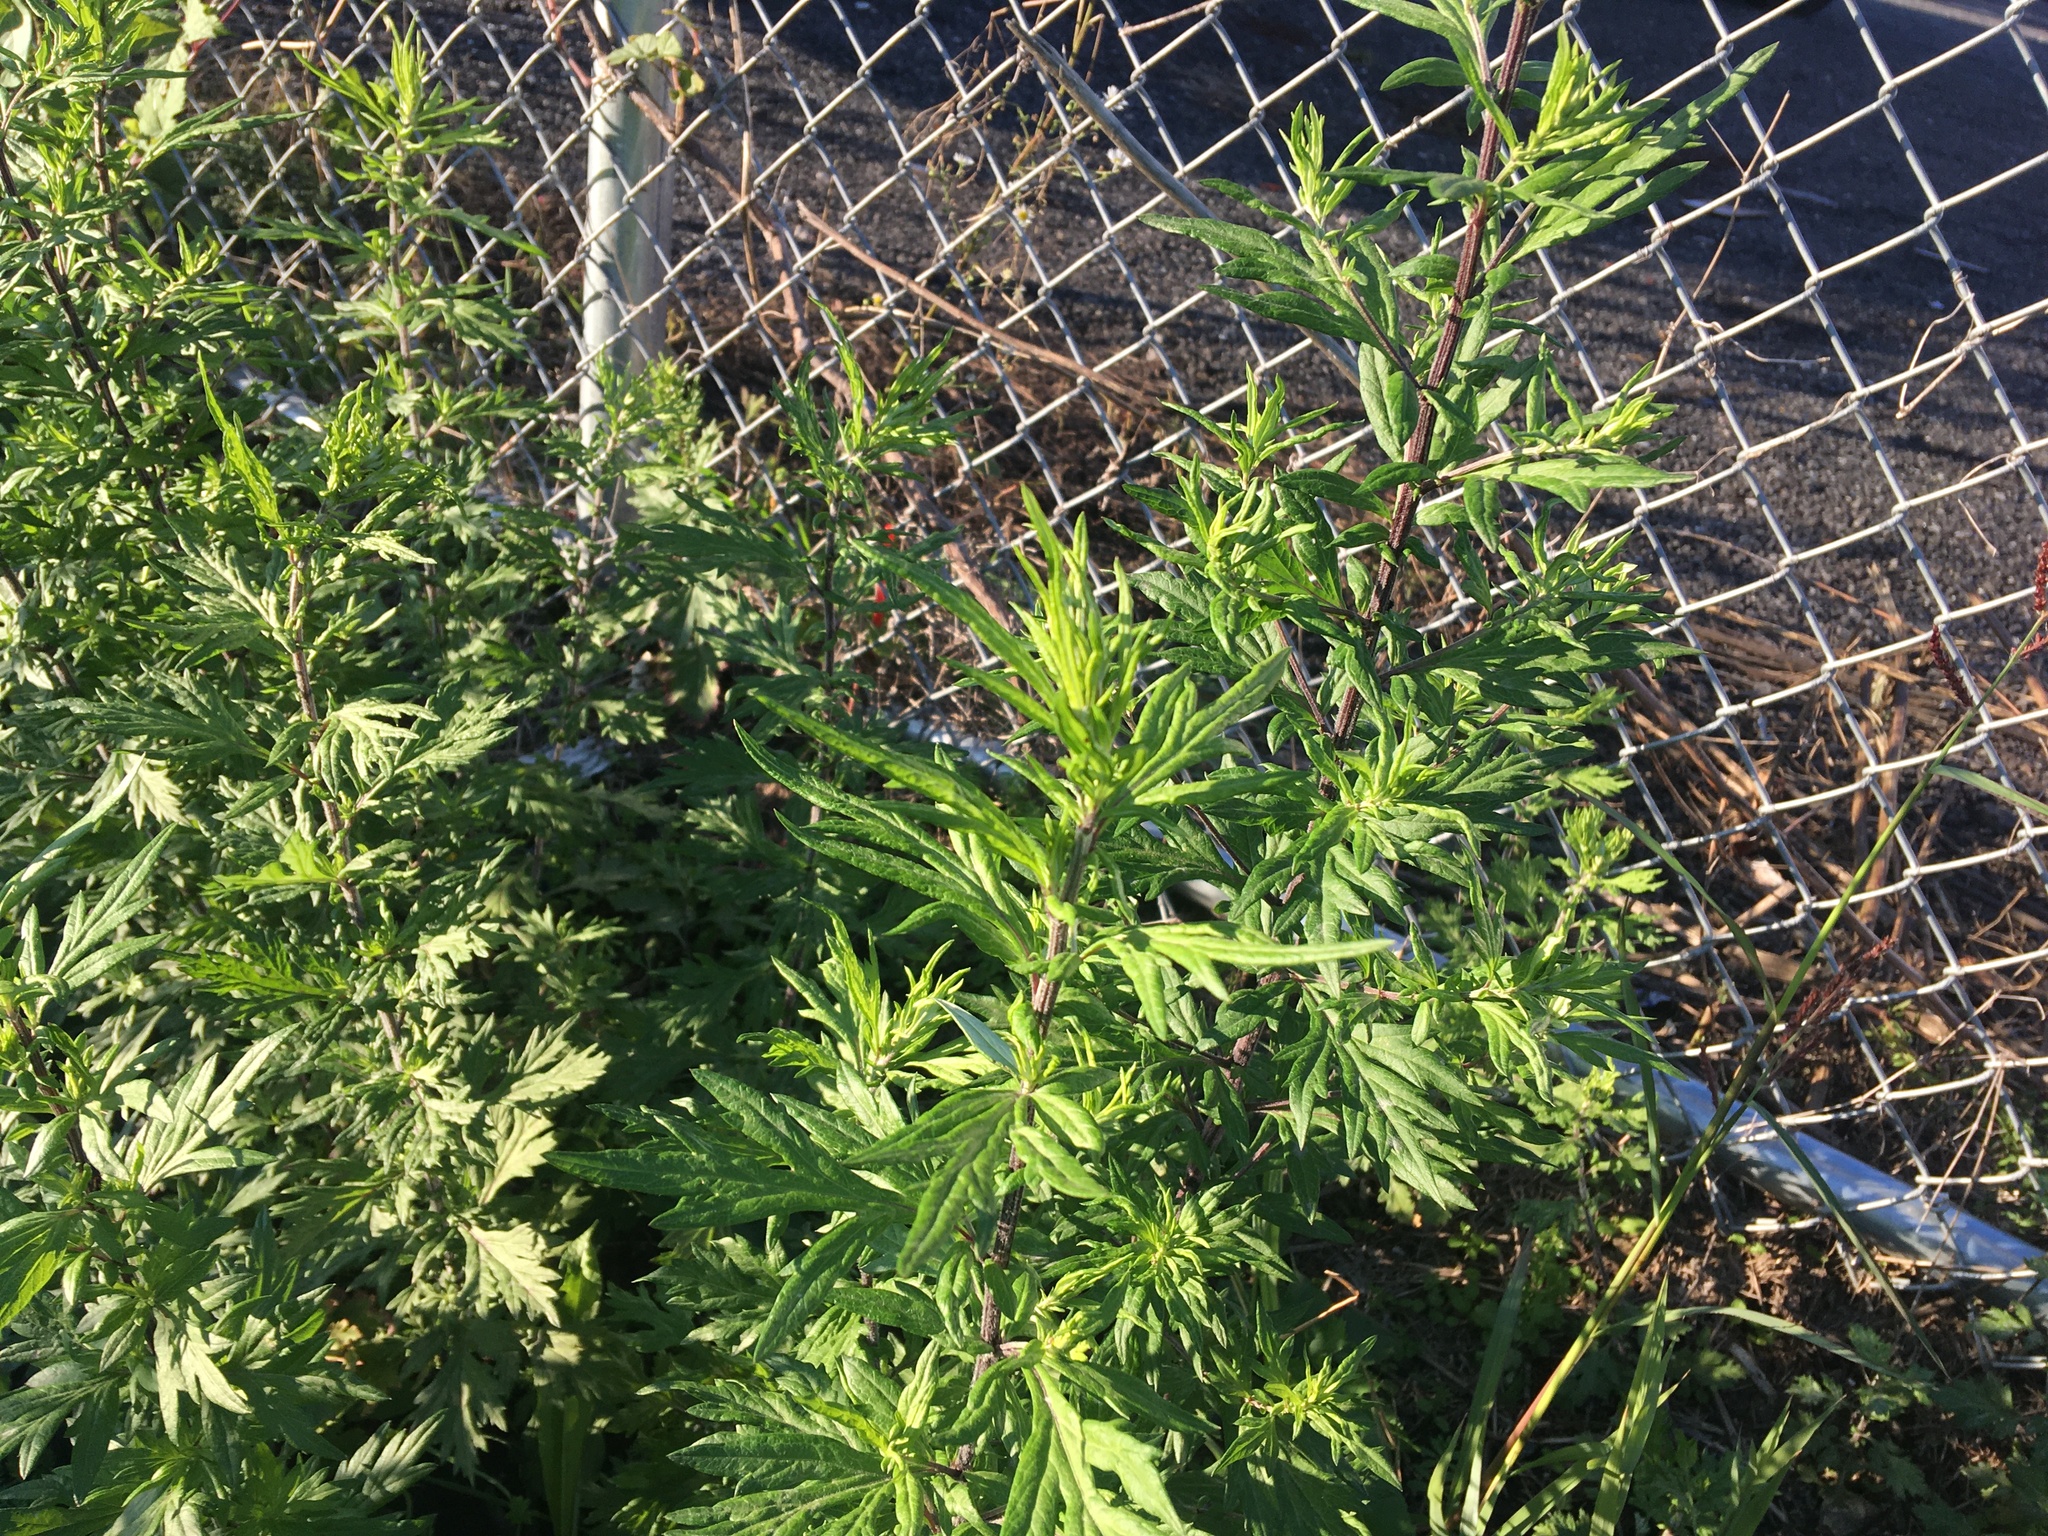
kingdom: Plantae
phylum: Tracheophyta
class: Magnoliopsida
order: Asterales
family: Asteraceae
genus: Artemisia
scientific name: Artemisia vulgaris
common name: Mugwort
